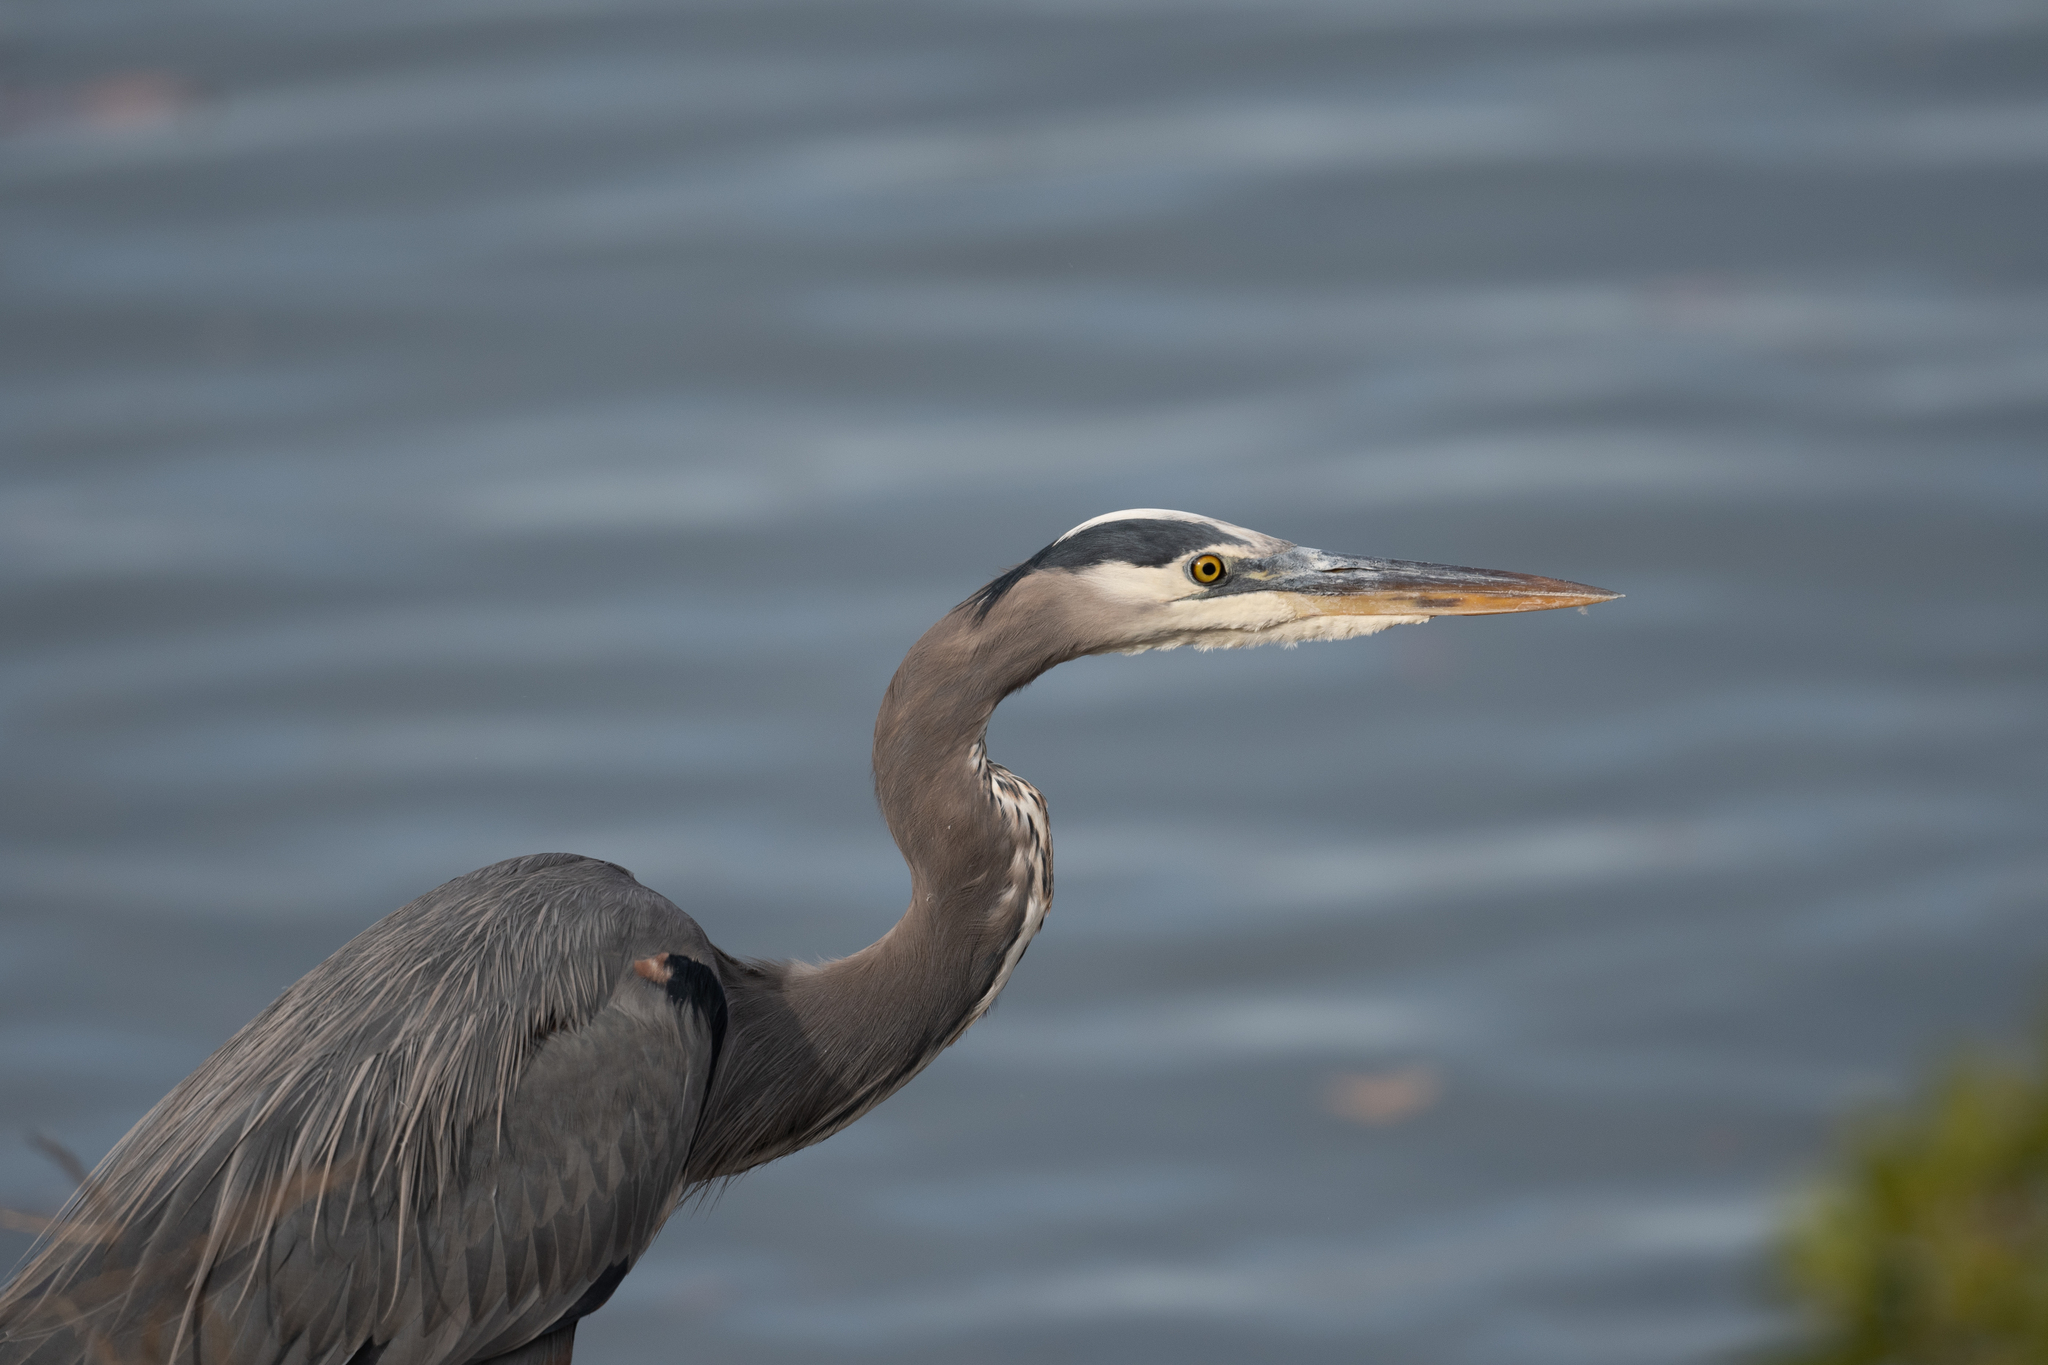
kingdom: Animalia
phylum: Chordata
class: Aves
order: Pelecaniformes
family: Ardeidae
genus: Ardea
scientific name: Ardea herodias
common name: Great blue heron
